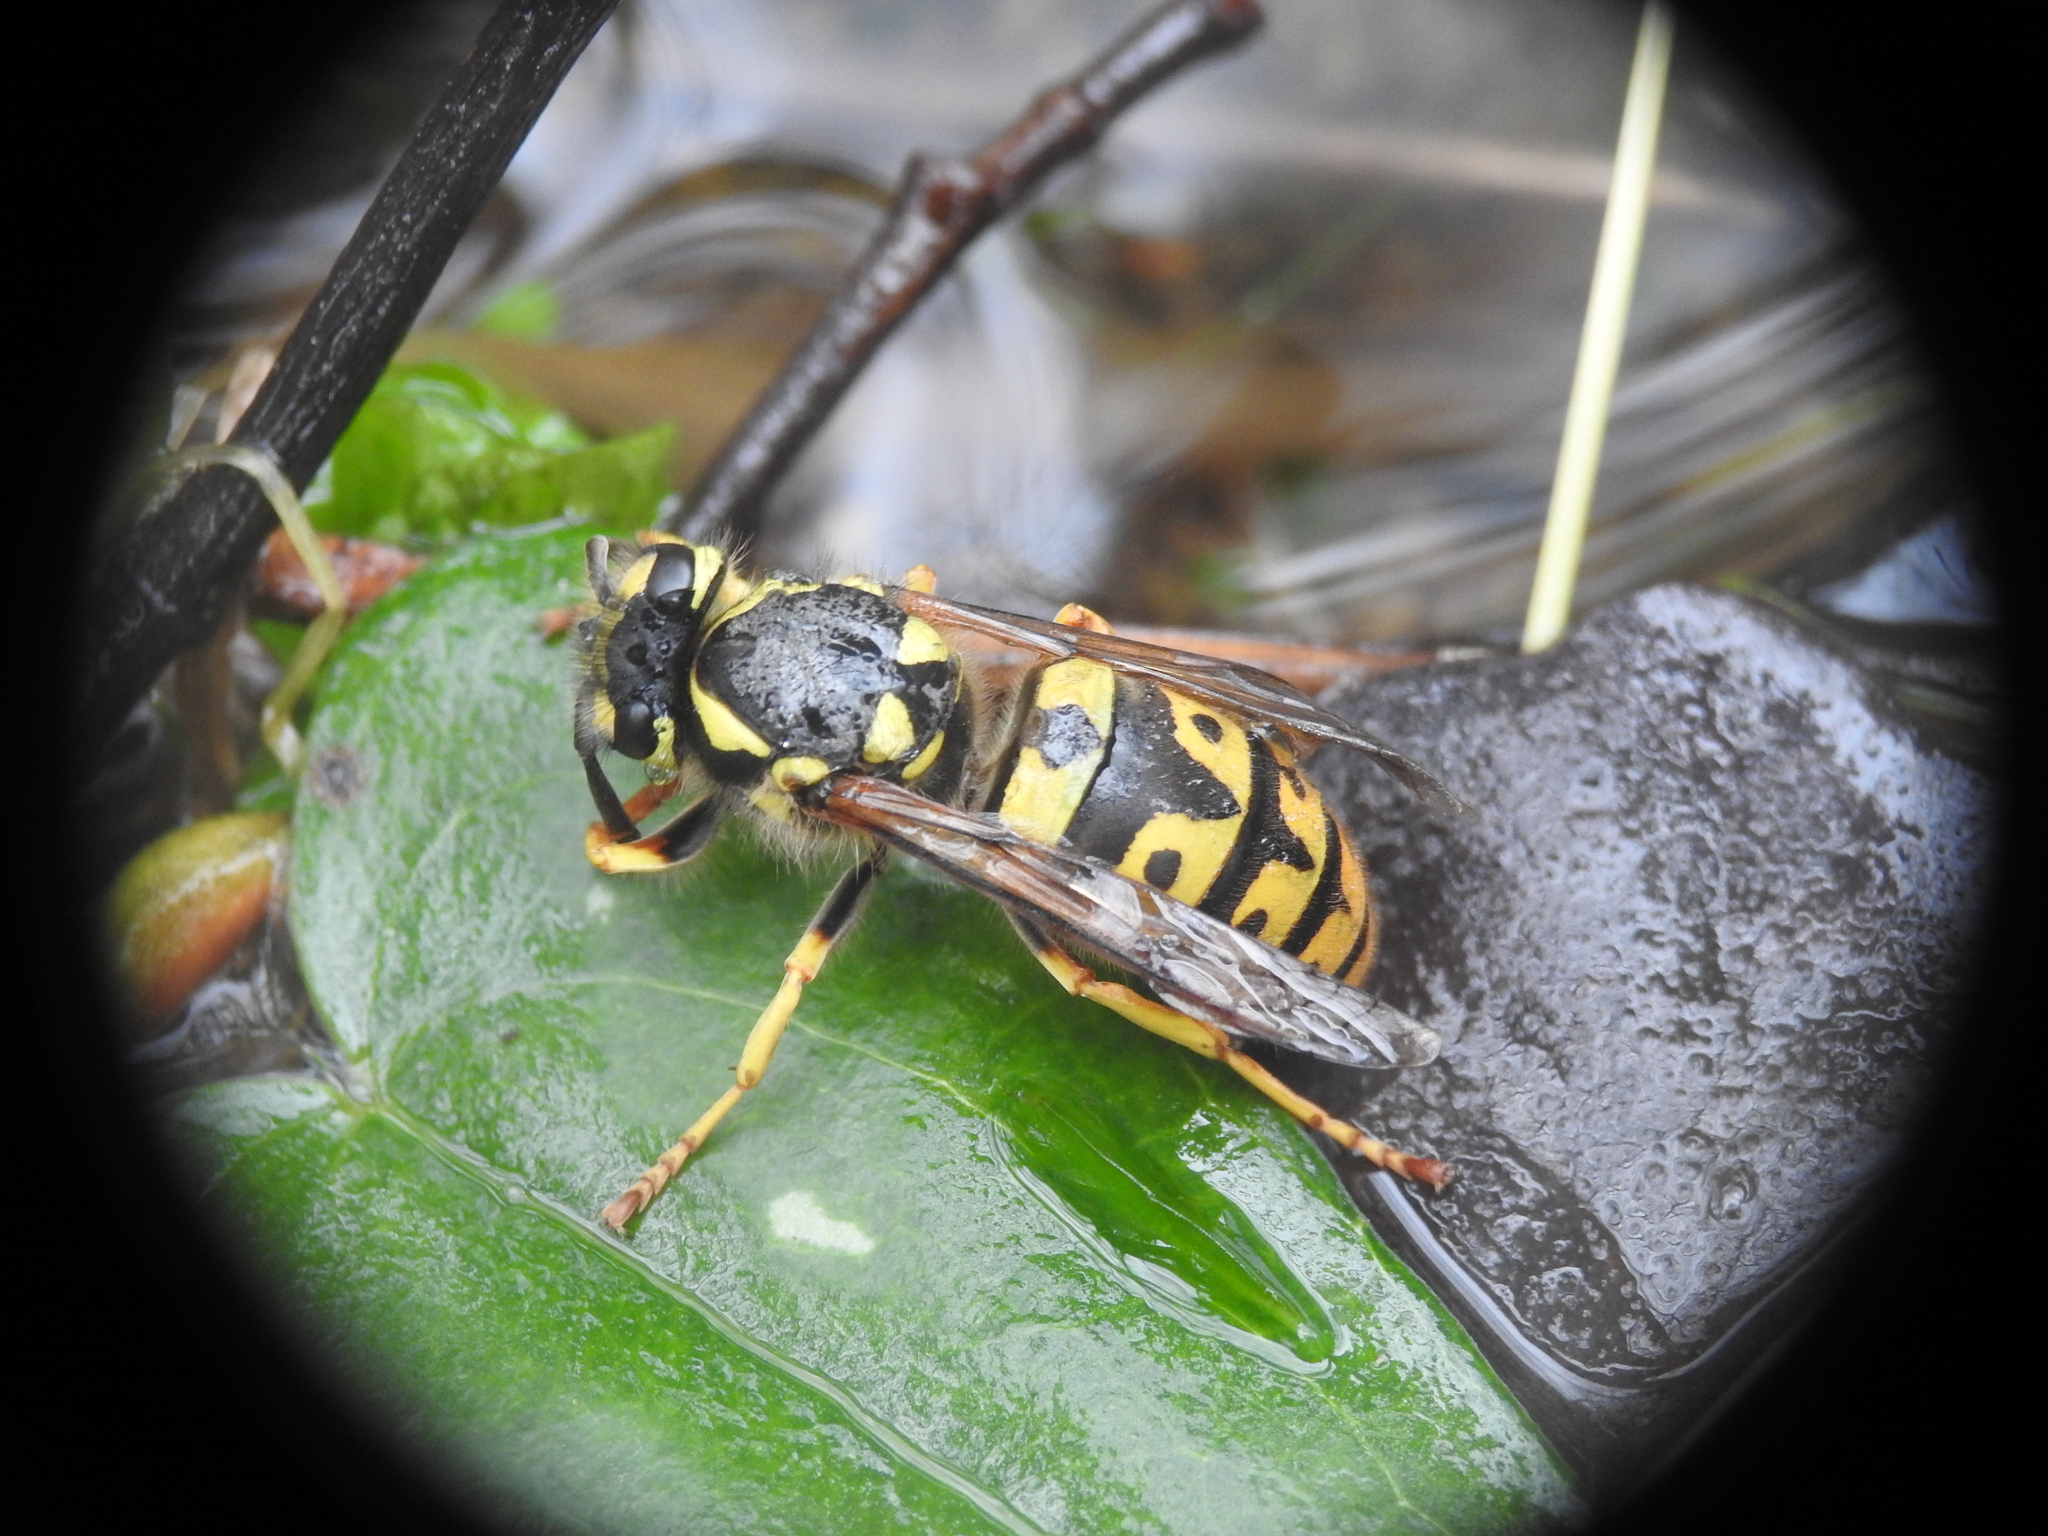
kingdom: Animalia
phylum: Arthropoda
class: Insecta
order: Hymenoptera
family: Vespidae
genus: Vespula
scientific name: Vespula germanica
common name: German wasp
